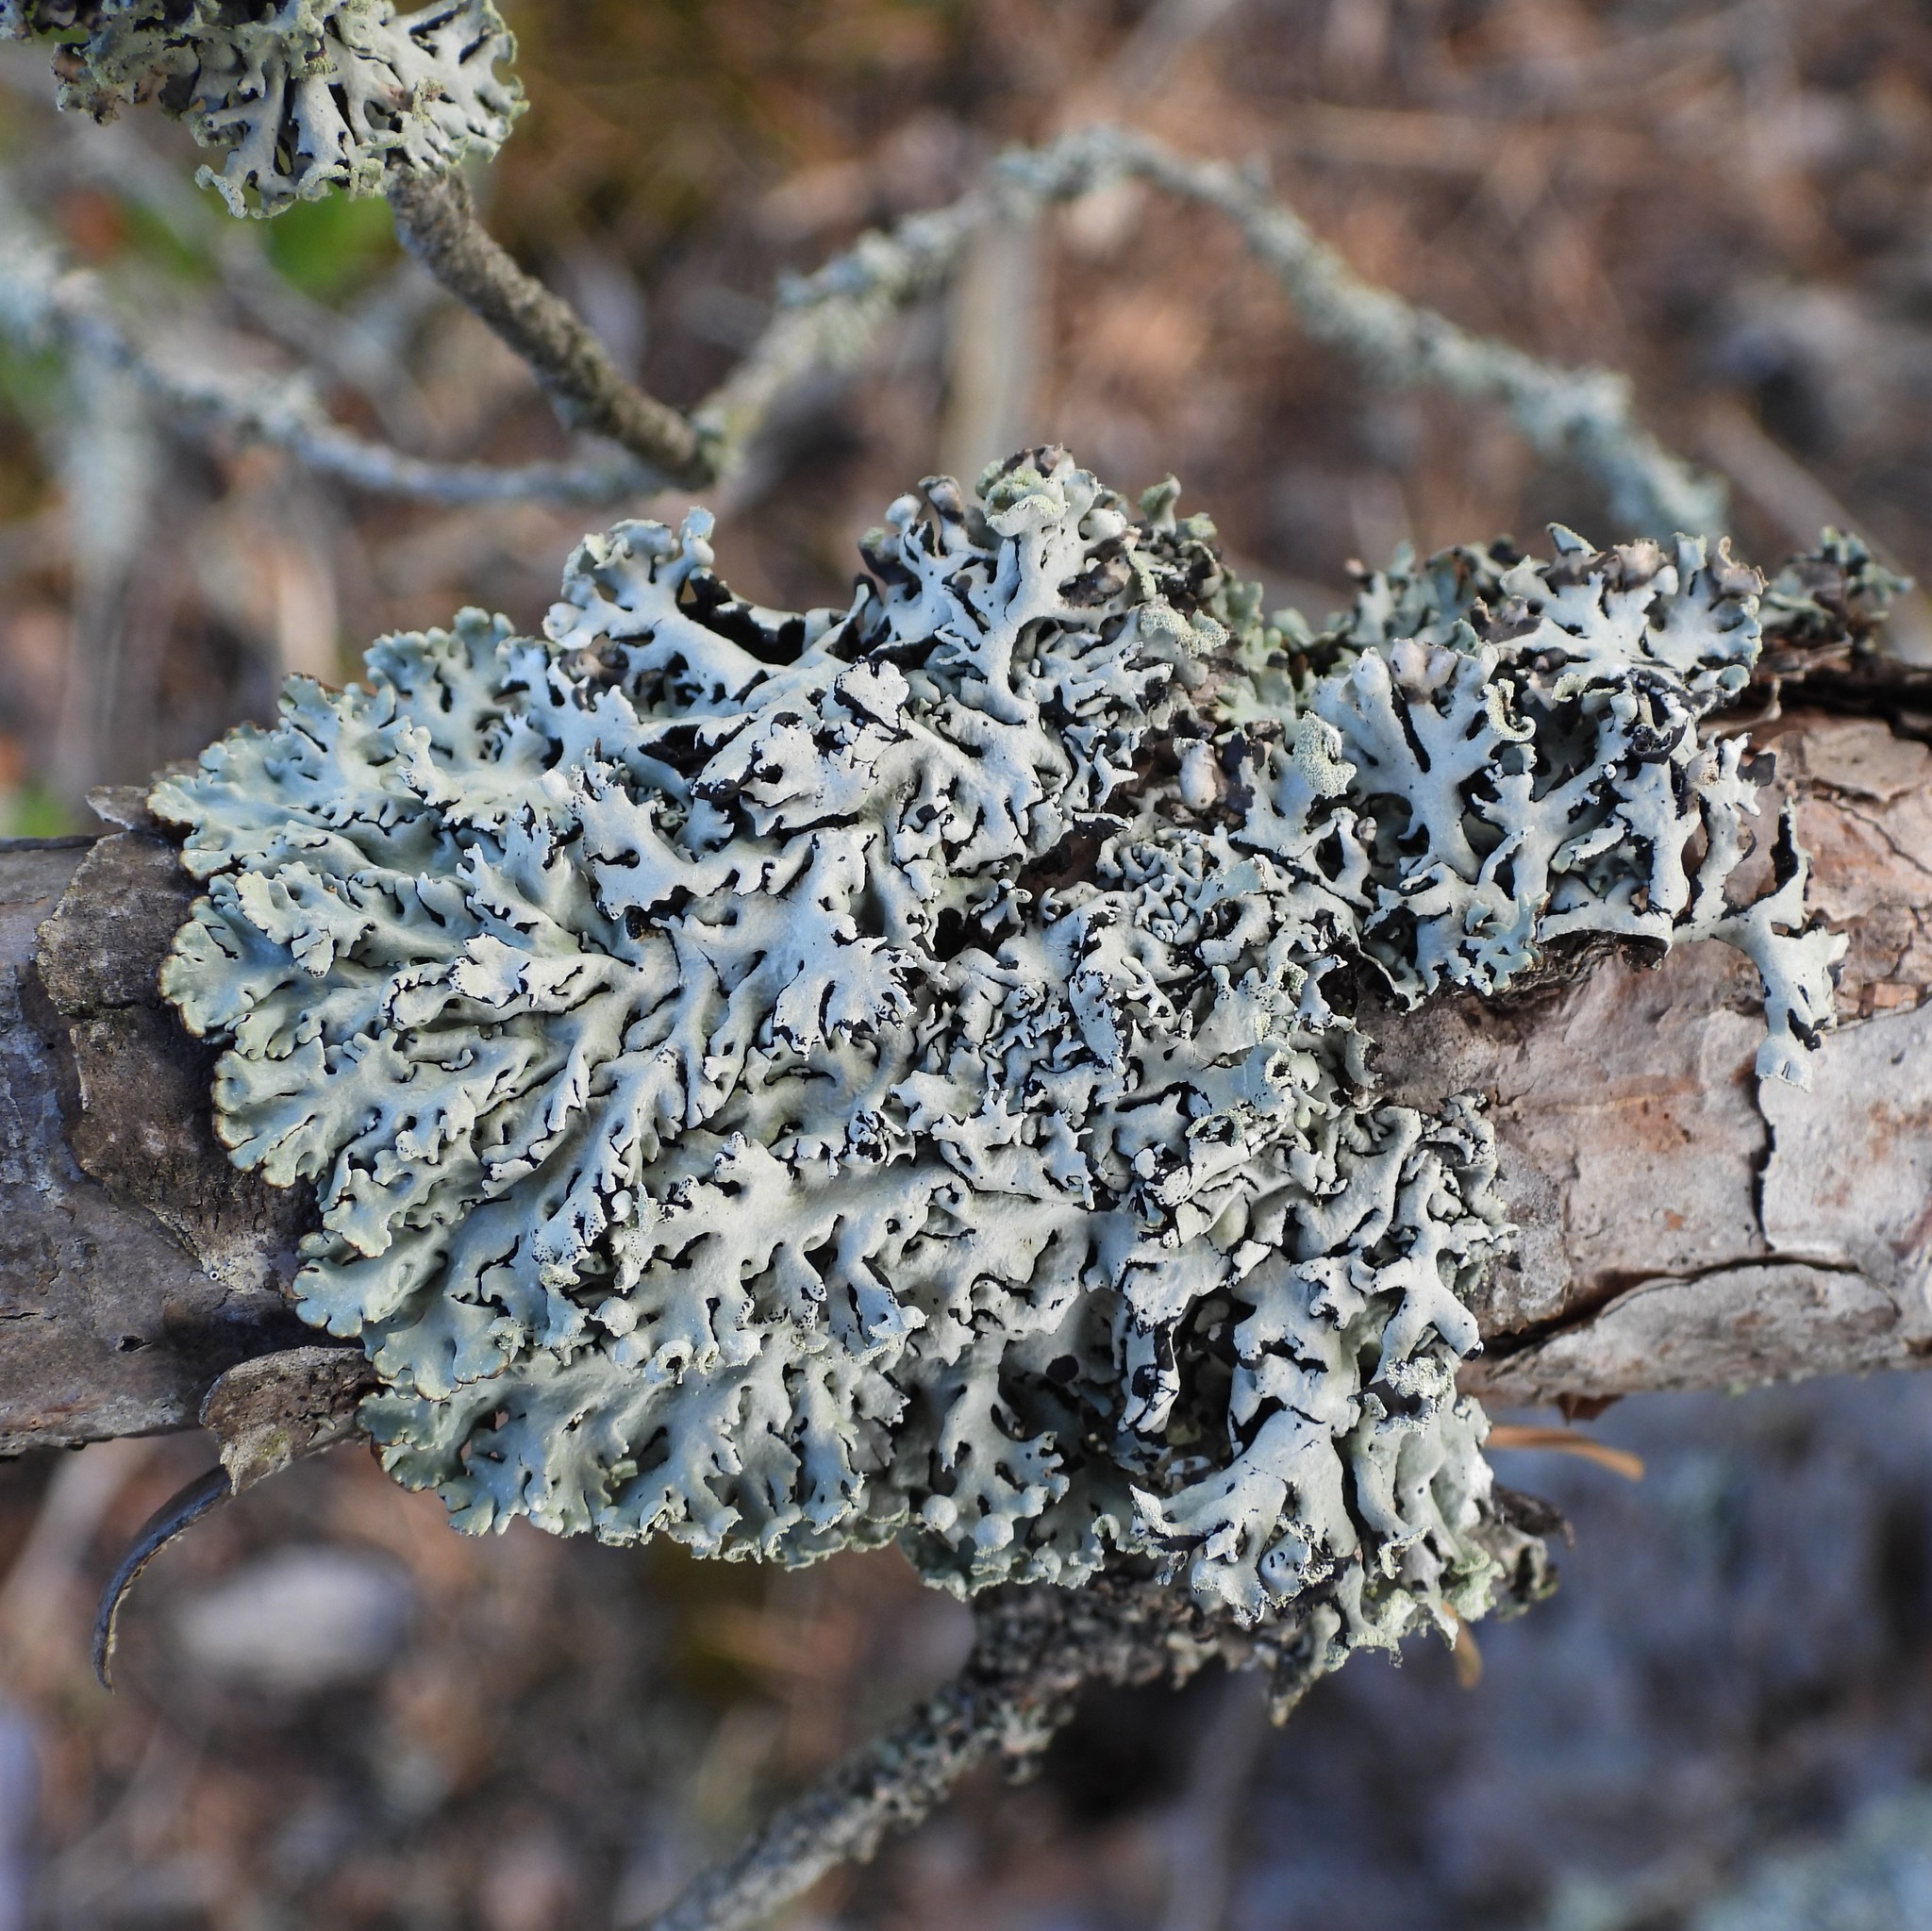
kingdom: Fungi
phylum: Ascomycota
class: Lecanoromycetes
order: Lecanorales
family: Parmeliaceae
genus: Hypogymnia
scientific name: Hypogymnia physodes
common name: Dark crottle
